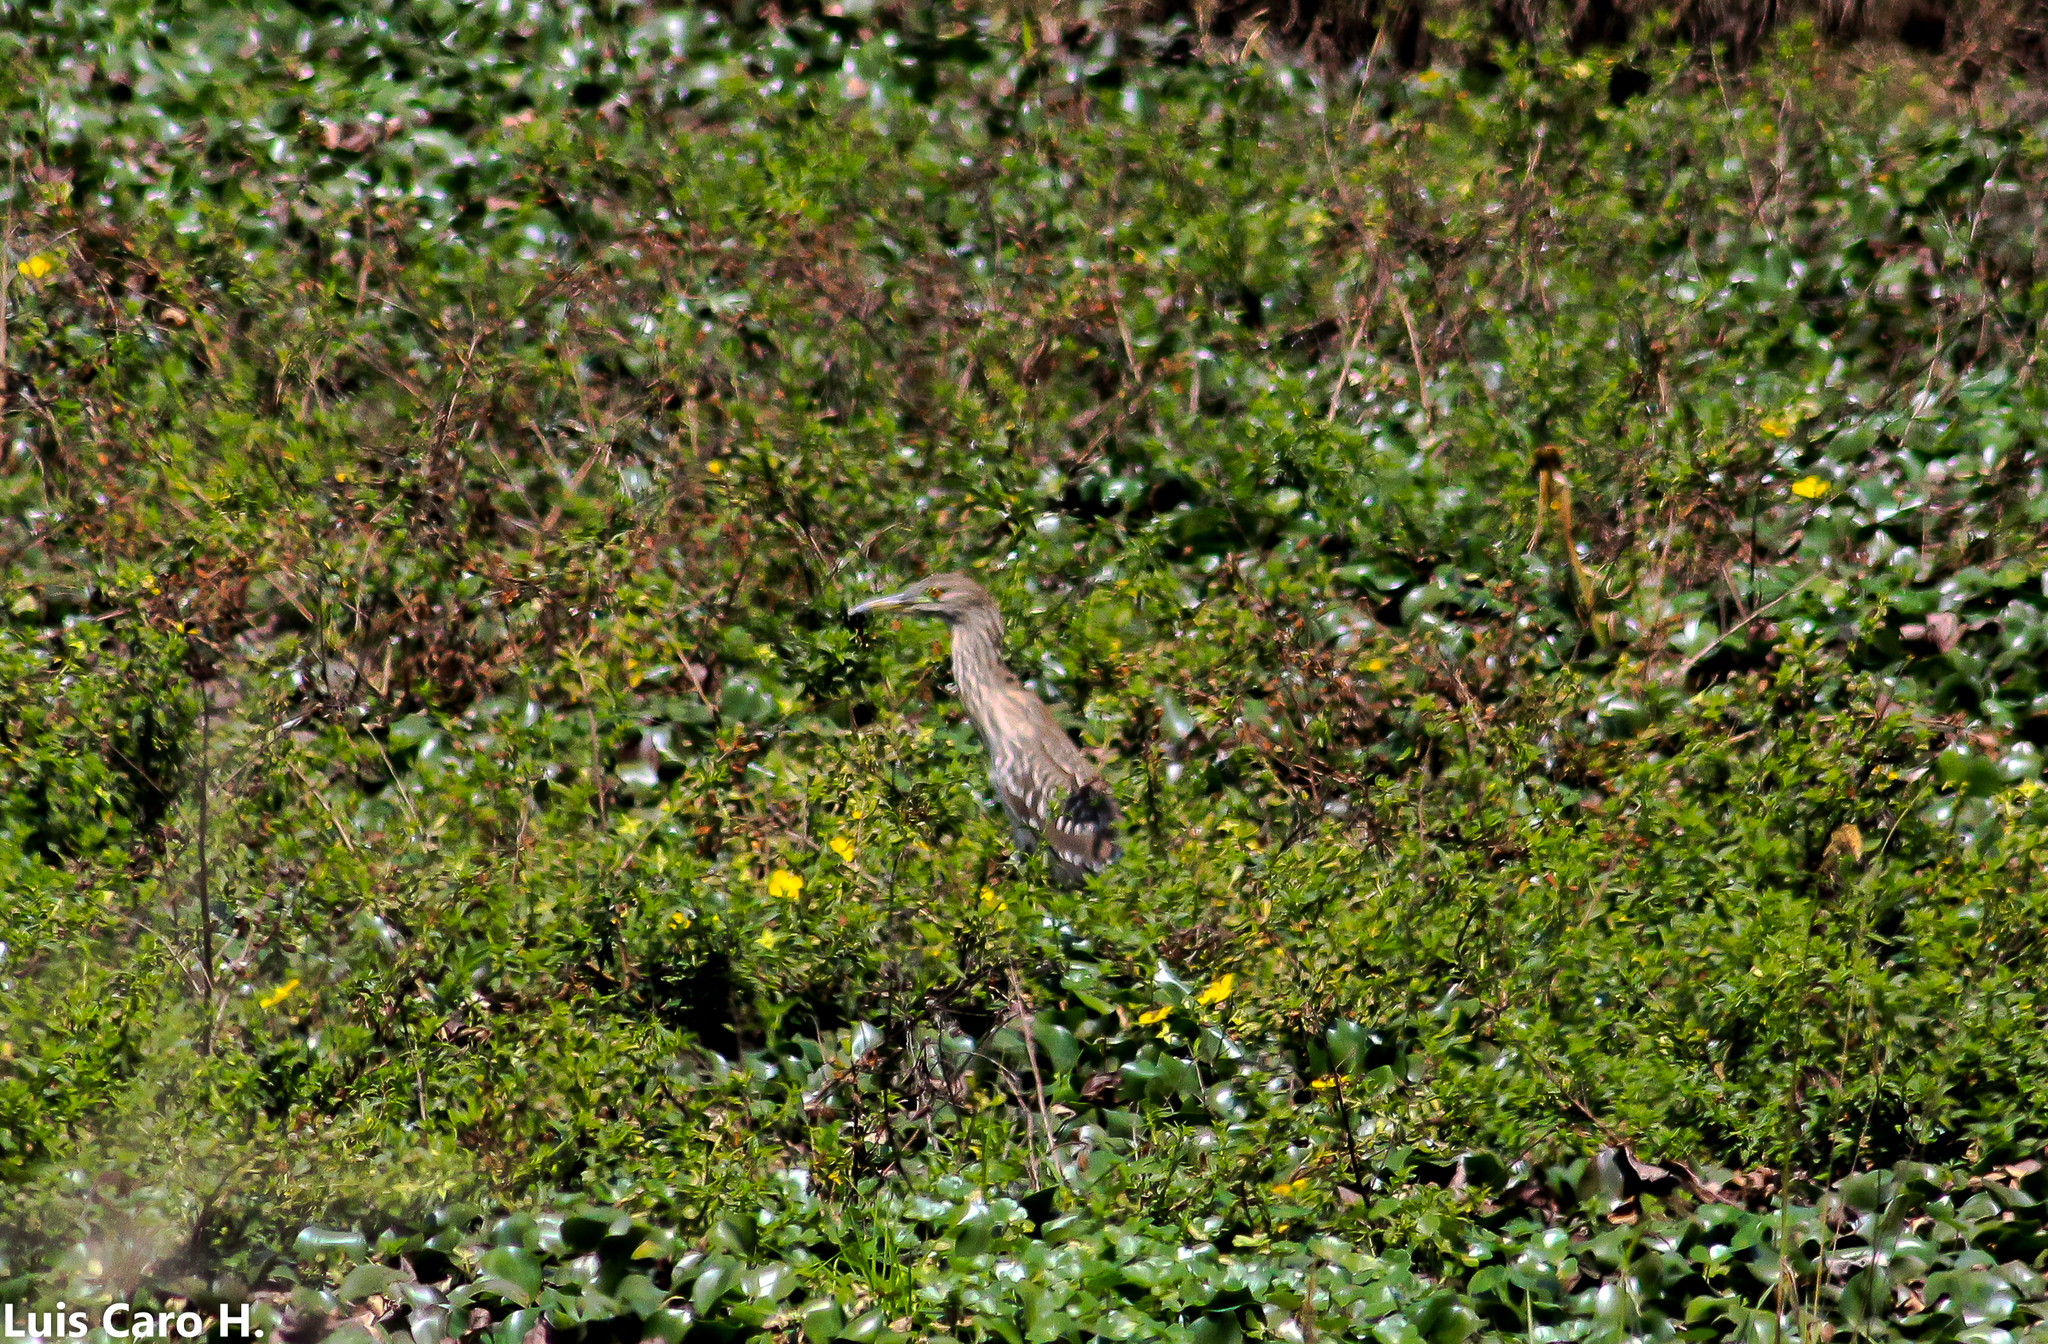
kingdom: Animalia
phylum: Chordata
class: Aves
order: Pelecaniformes
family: Ardeidae
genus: Nycticorax
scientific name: Nycticorax nycticorax
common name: Black-crowned night heron
